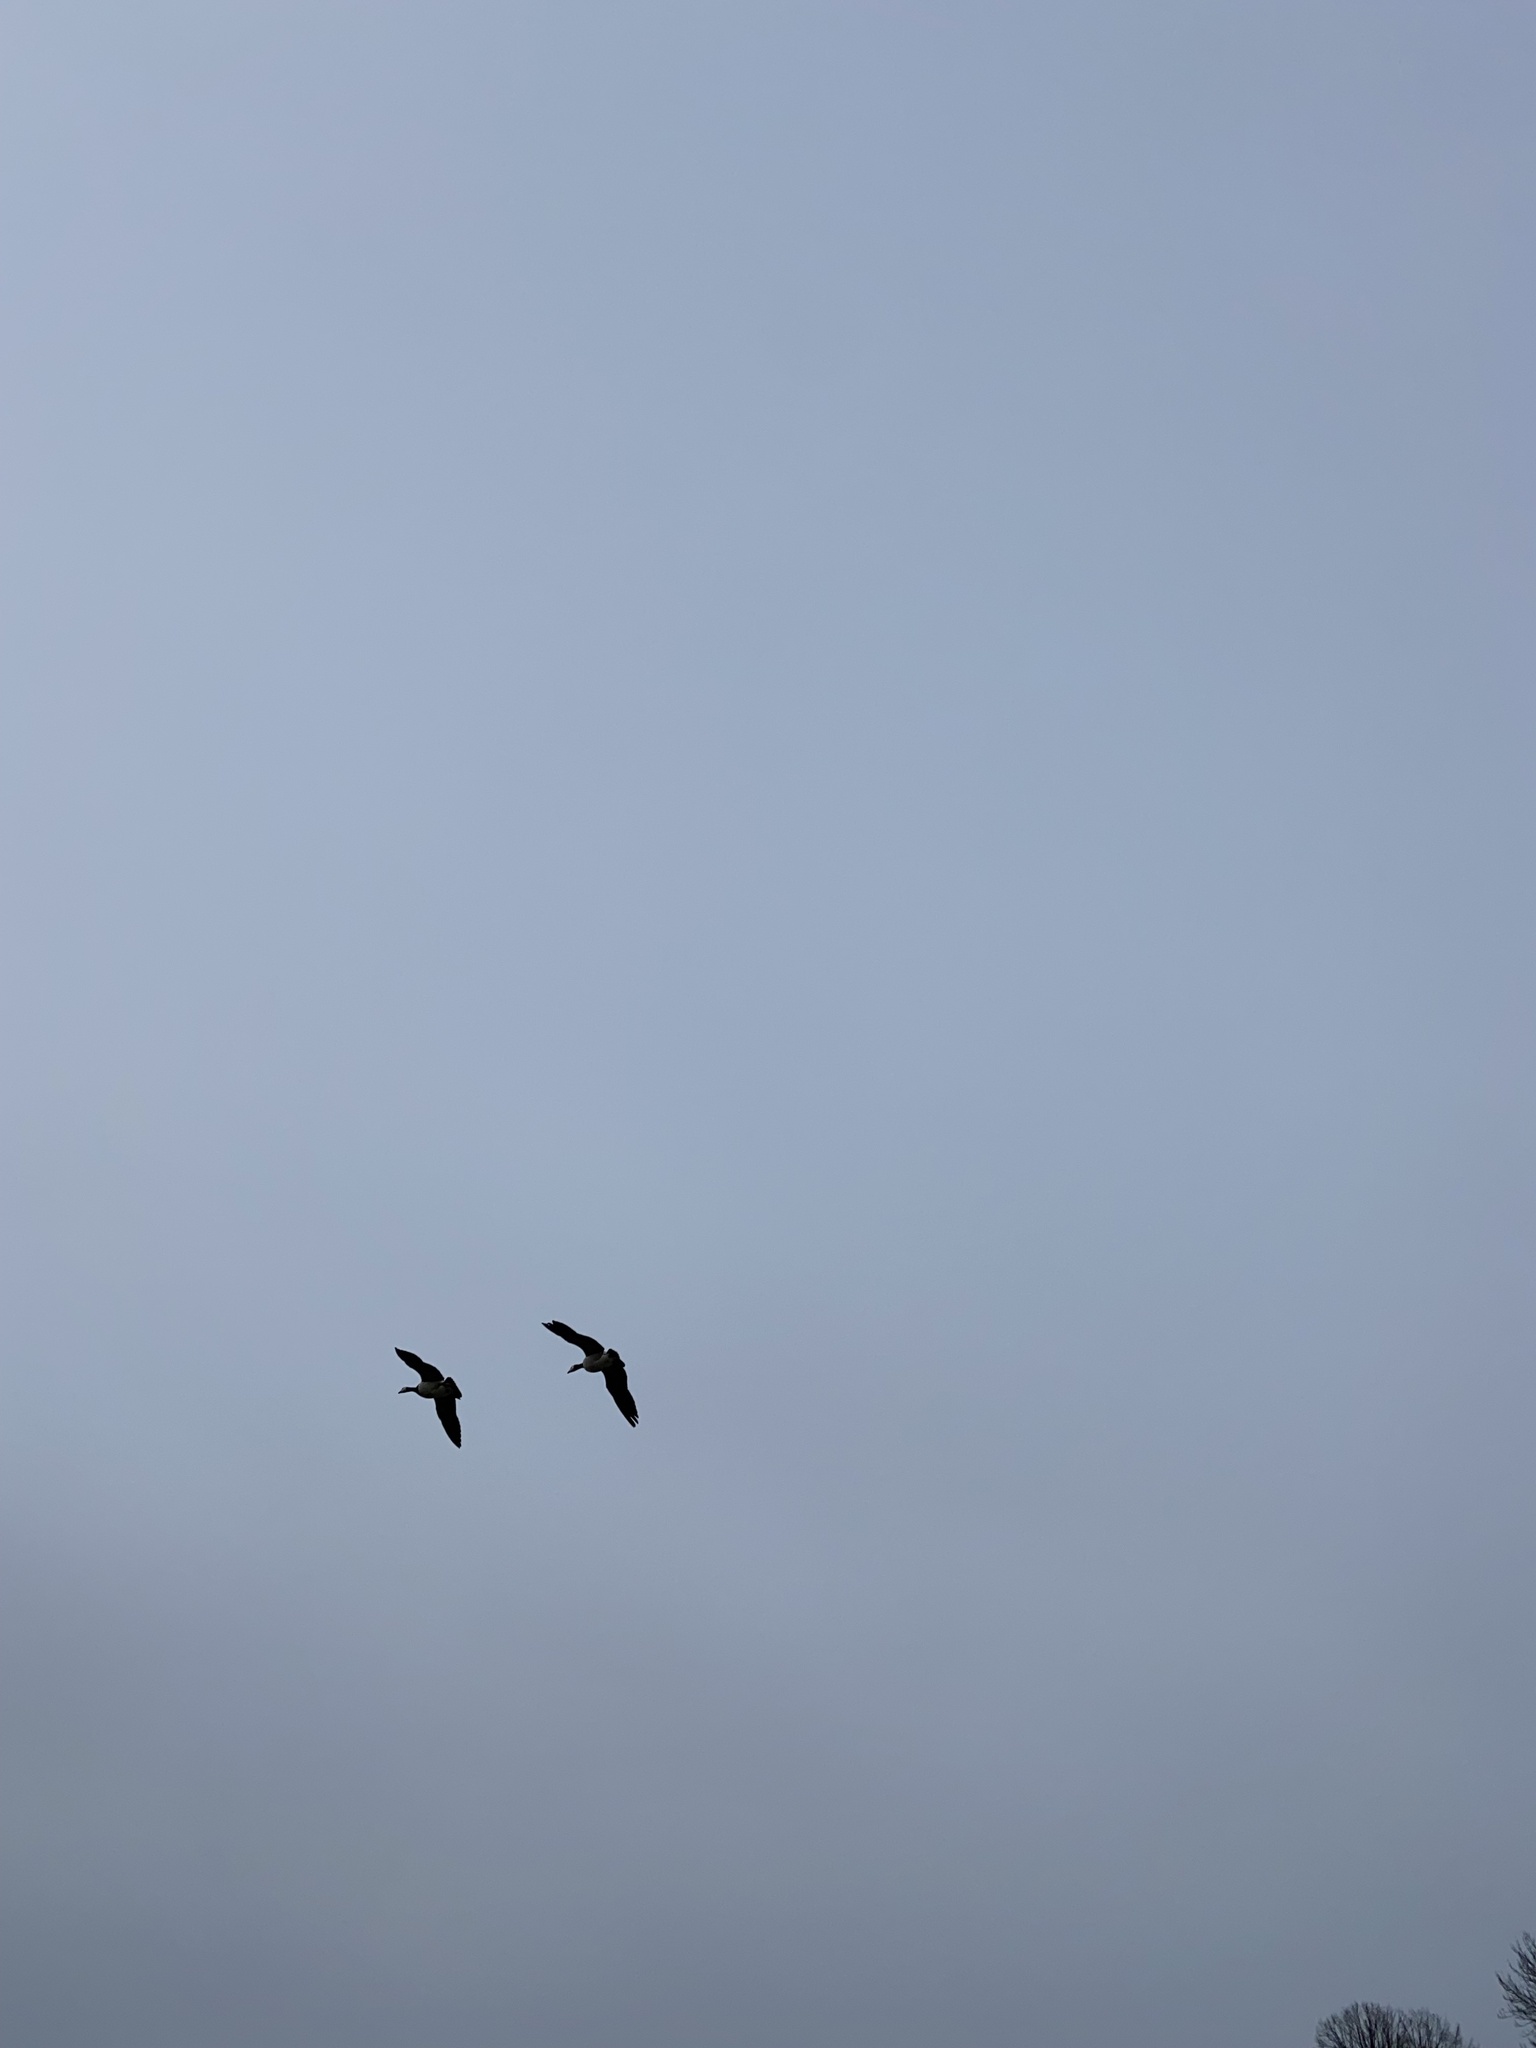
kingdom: Animalia
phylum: Chordata
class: Aves
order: Anseriformes
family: Anatidae
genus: Branta
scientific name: Branta leucopsis
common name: Barnacle goose
